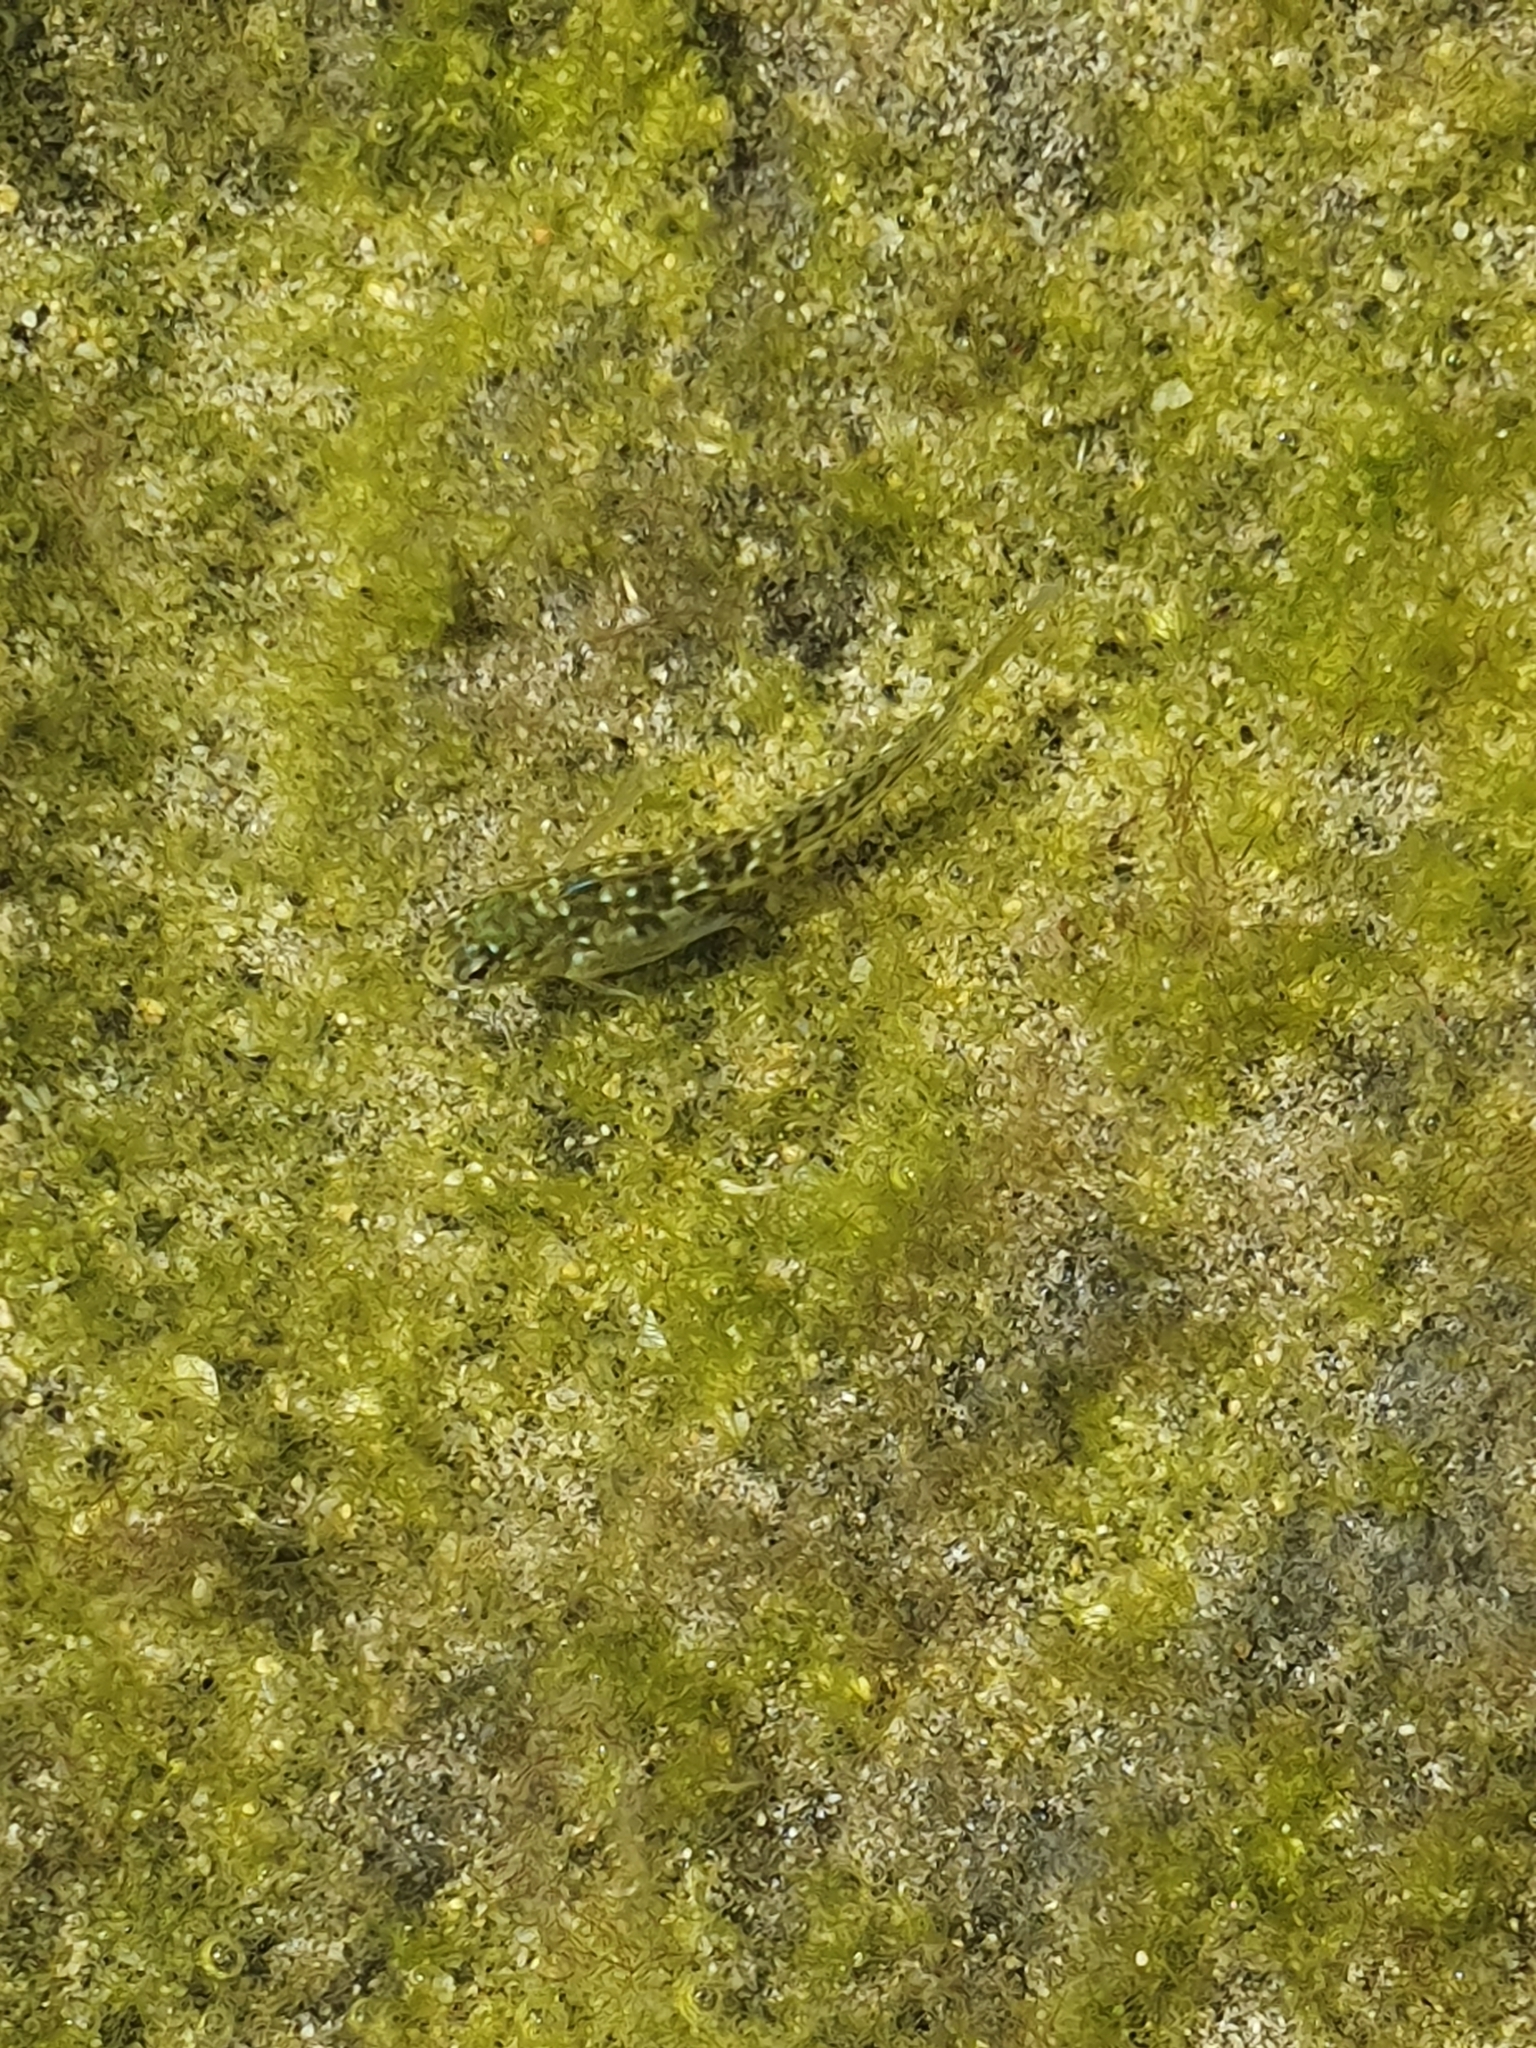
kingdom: Animalia
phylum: Chordata
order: Perciformes
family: Blenniidae
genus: Parablennius
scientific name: Parablennius parvicornis
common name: Rock-pool blenny
